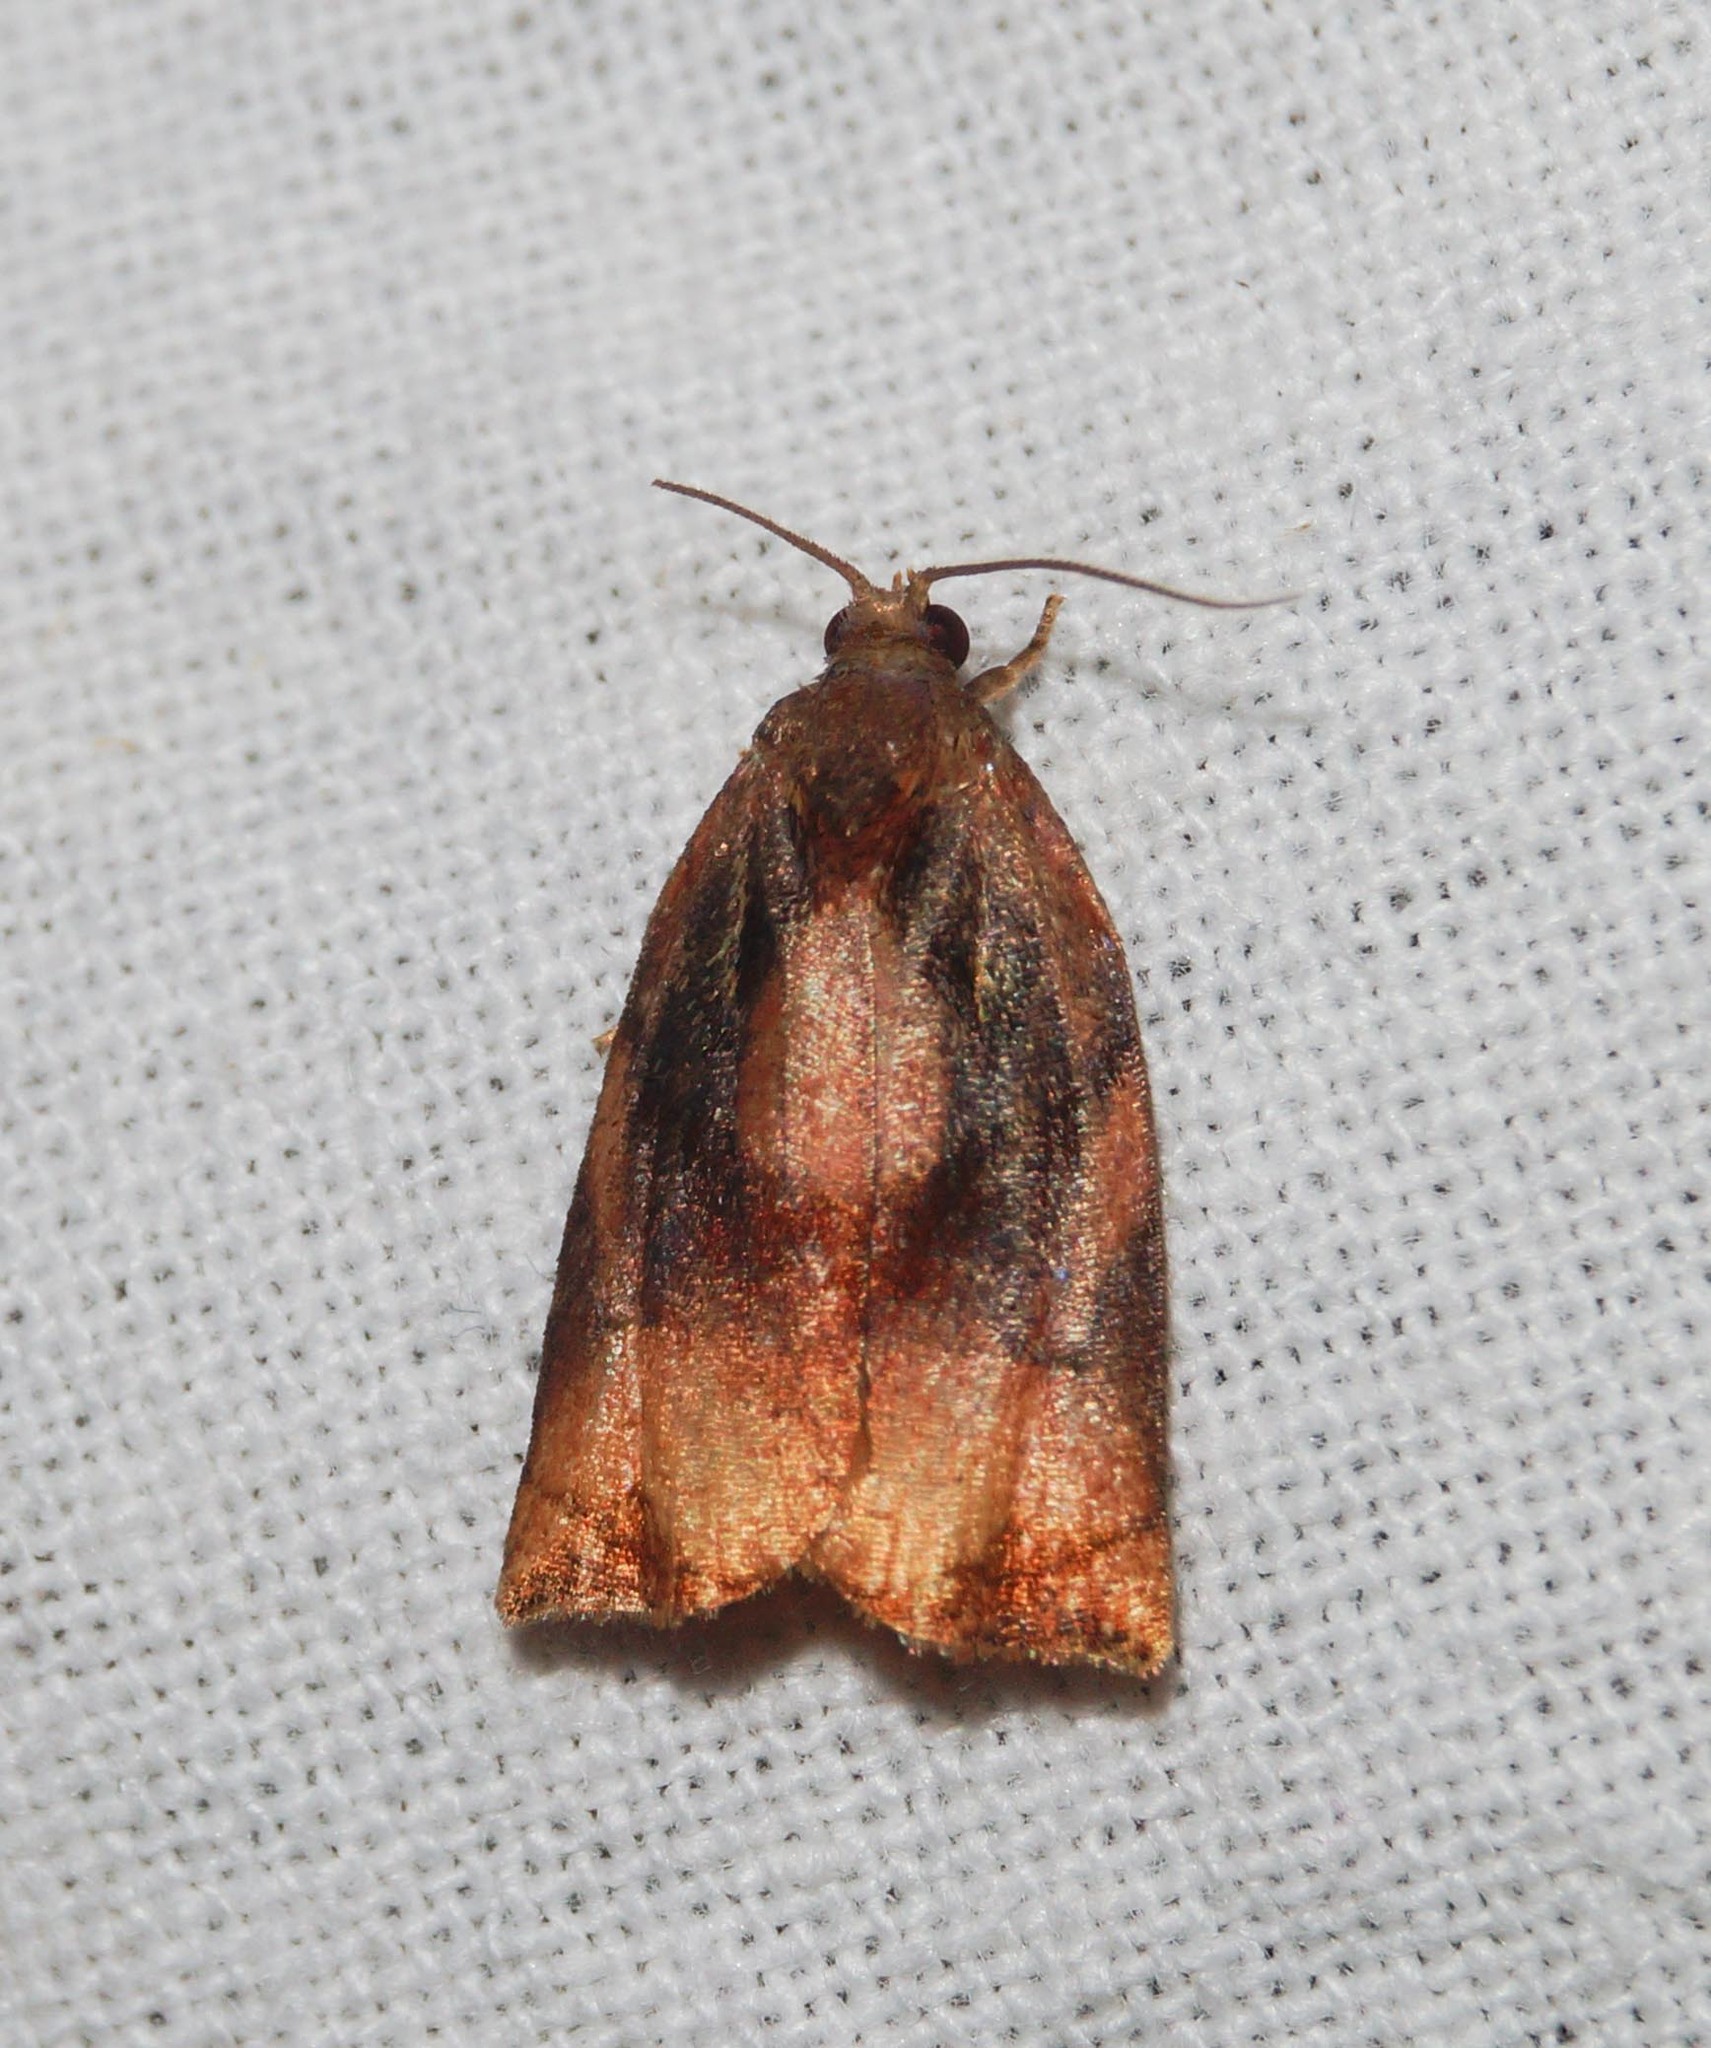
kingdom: Animalia
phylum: Arthropoda
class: Insecta
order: Lepidoptera
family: Tortricidae
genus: Archips
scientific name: Archips podana
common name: Large fruit-tree tortrix
